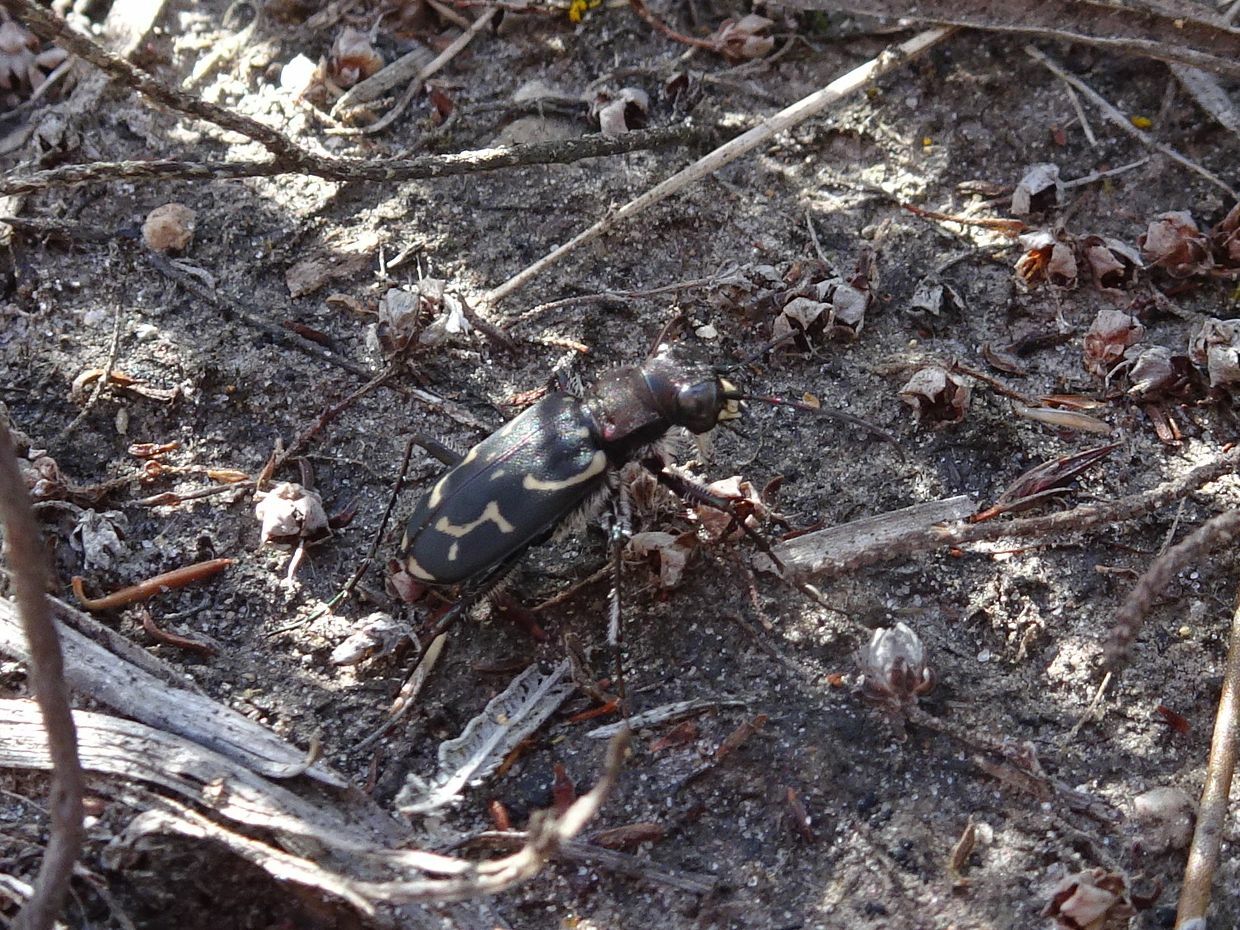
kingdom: Animalia
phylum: Arthropoda
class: Insecta
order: Coleoptera
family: Carabidae
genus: Cicindela
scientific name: Cicindela lurida
